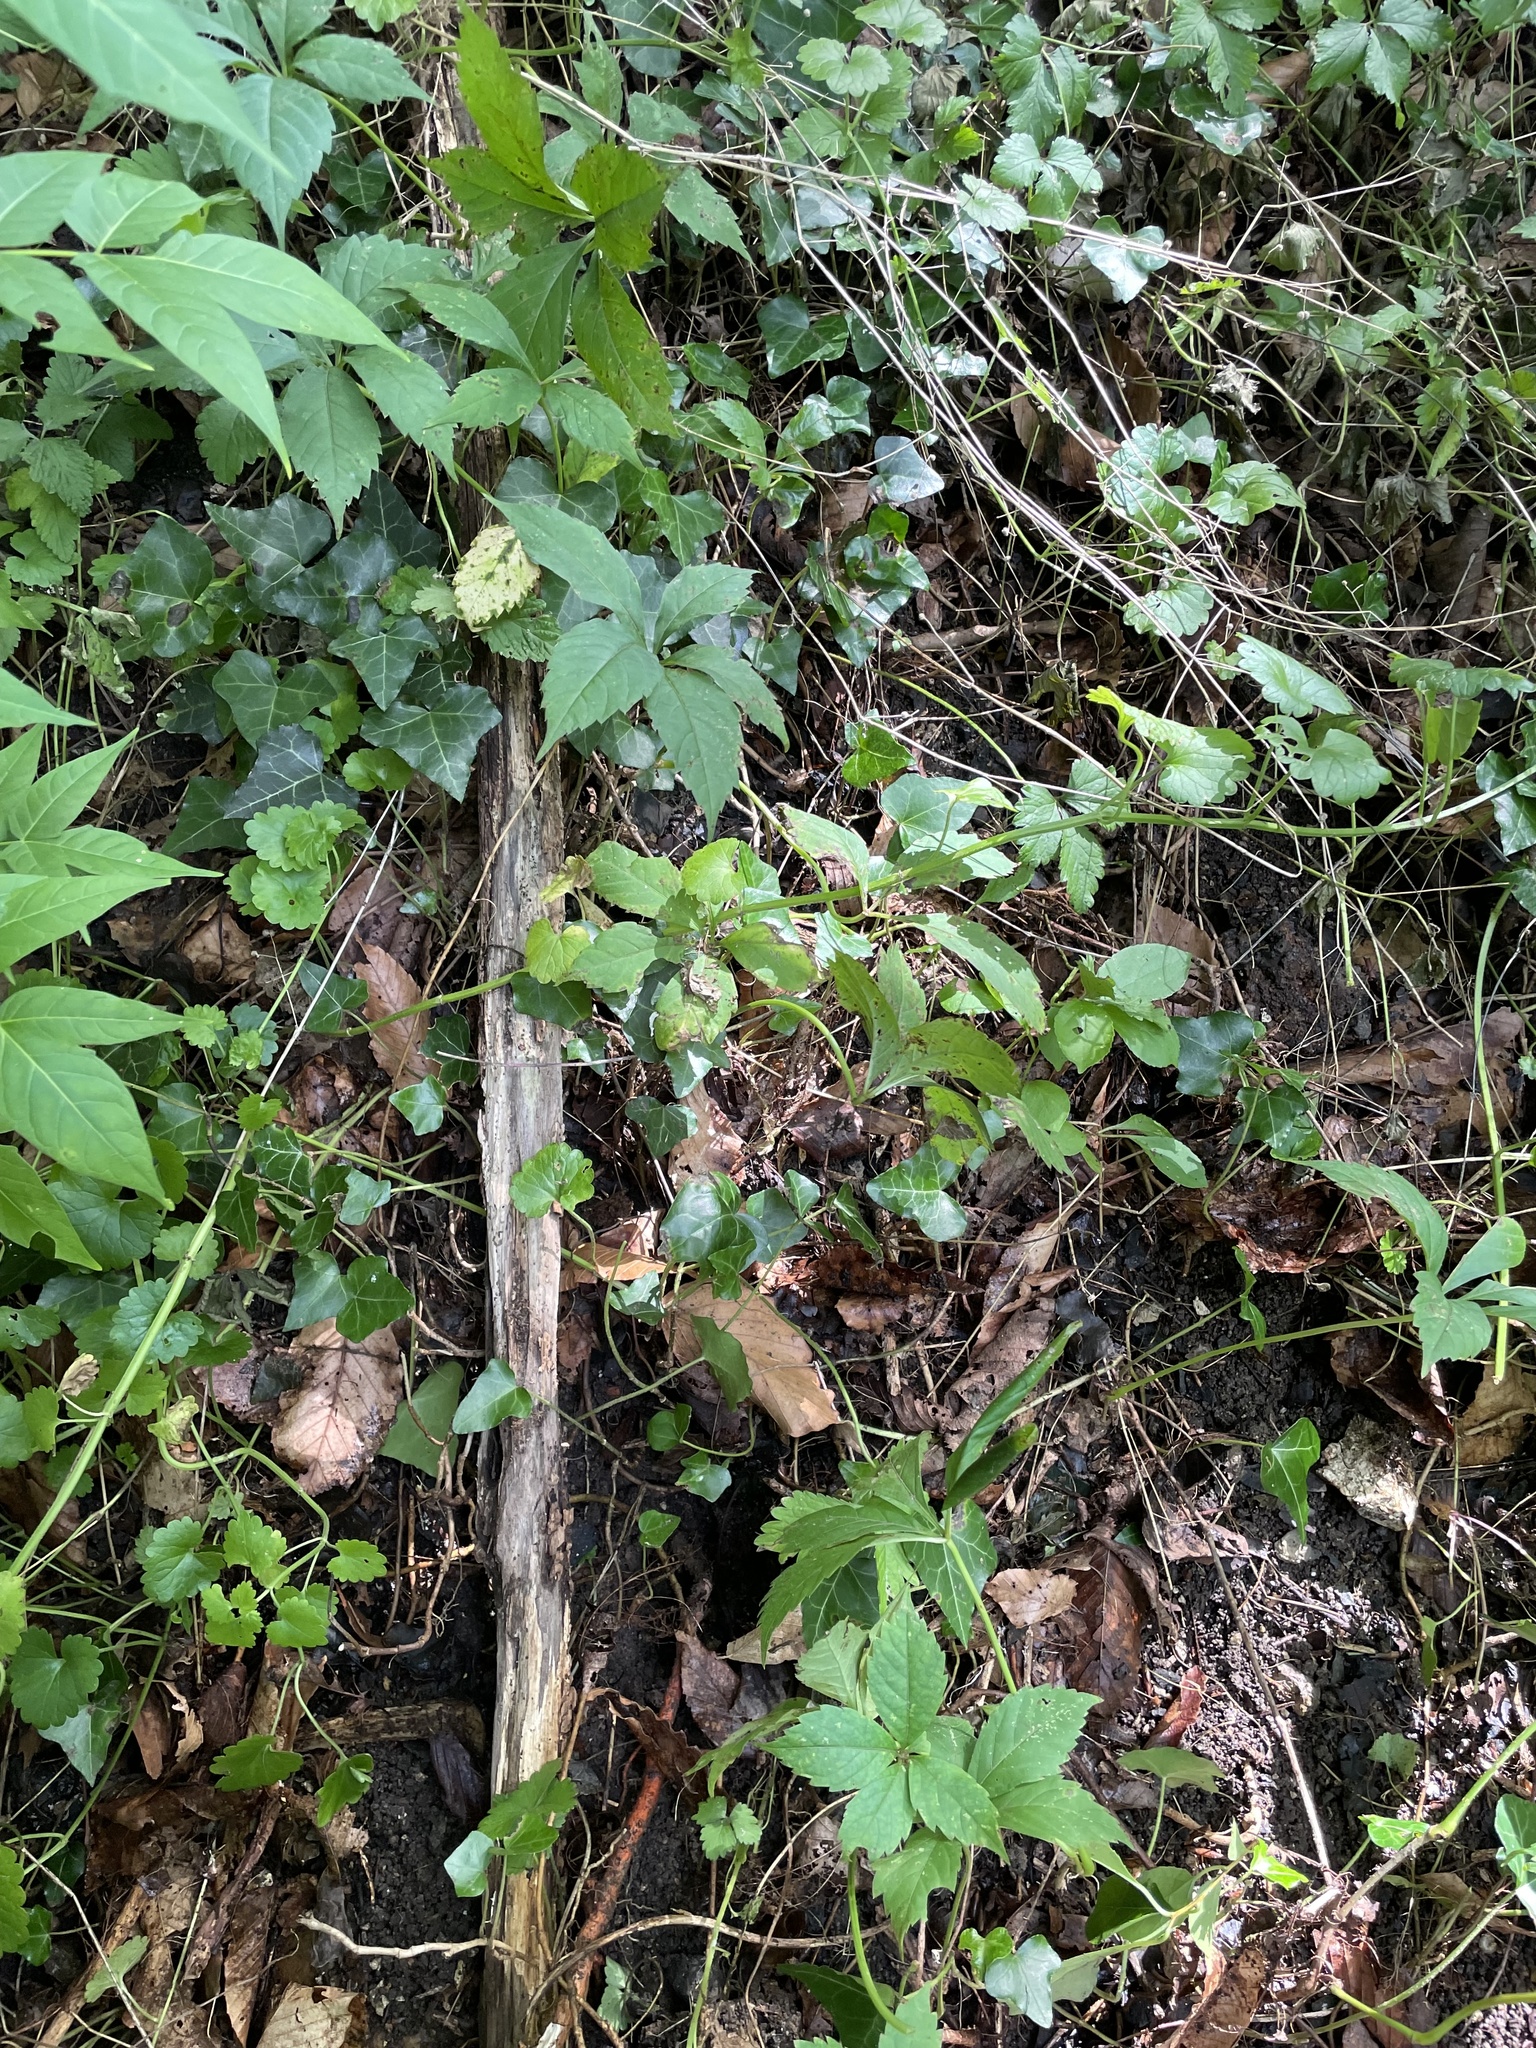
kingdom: Plantae
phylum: Tracheophyta
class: Magnoliopsida
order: Vitales
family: Vitaceae
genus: Parthenocissus
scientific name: Parthenocissus quinquefolia
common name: Virginia-creeper
